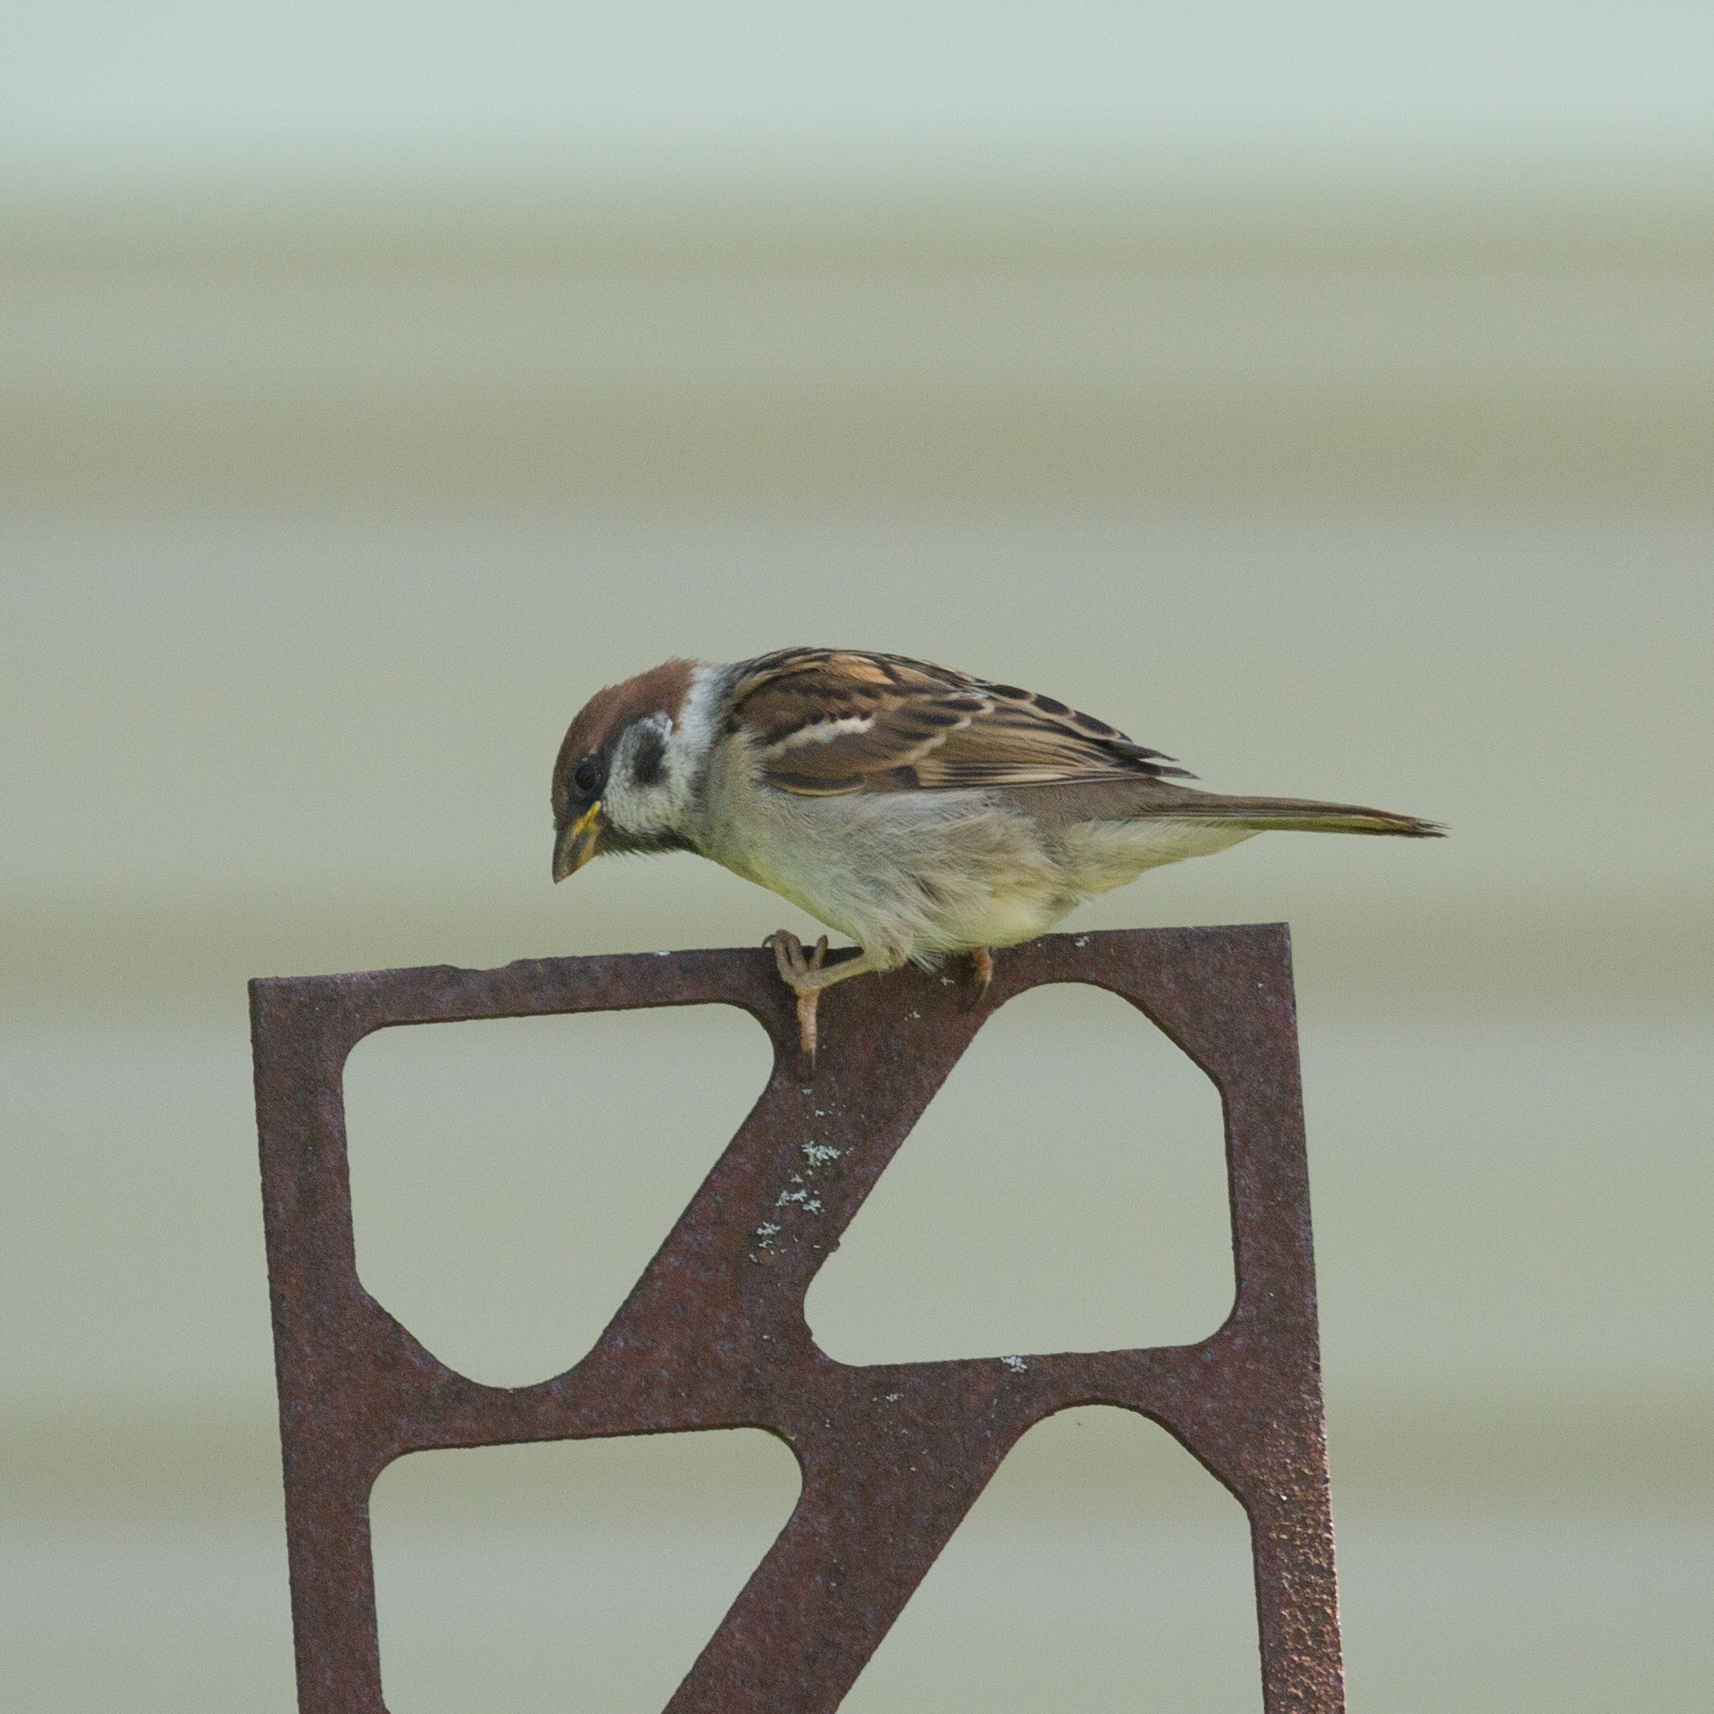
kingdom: Animalia
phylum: Chordata
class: Aves
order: Passeriformes
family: Passeridae
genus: Passer
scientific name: Passer montanus
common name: Eurasian tree sparrow
